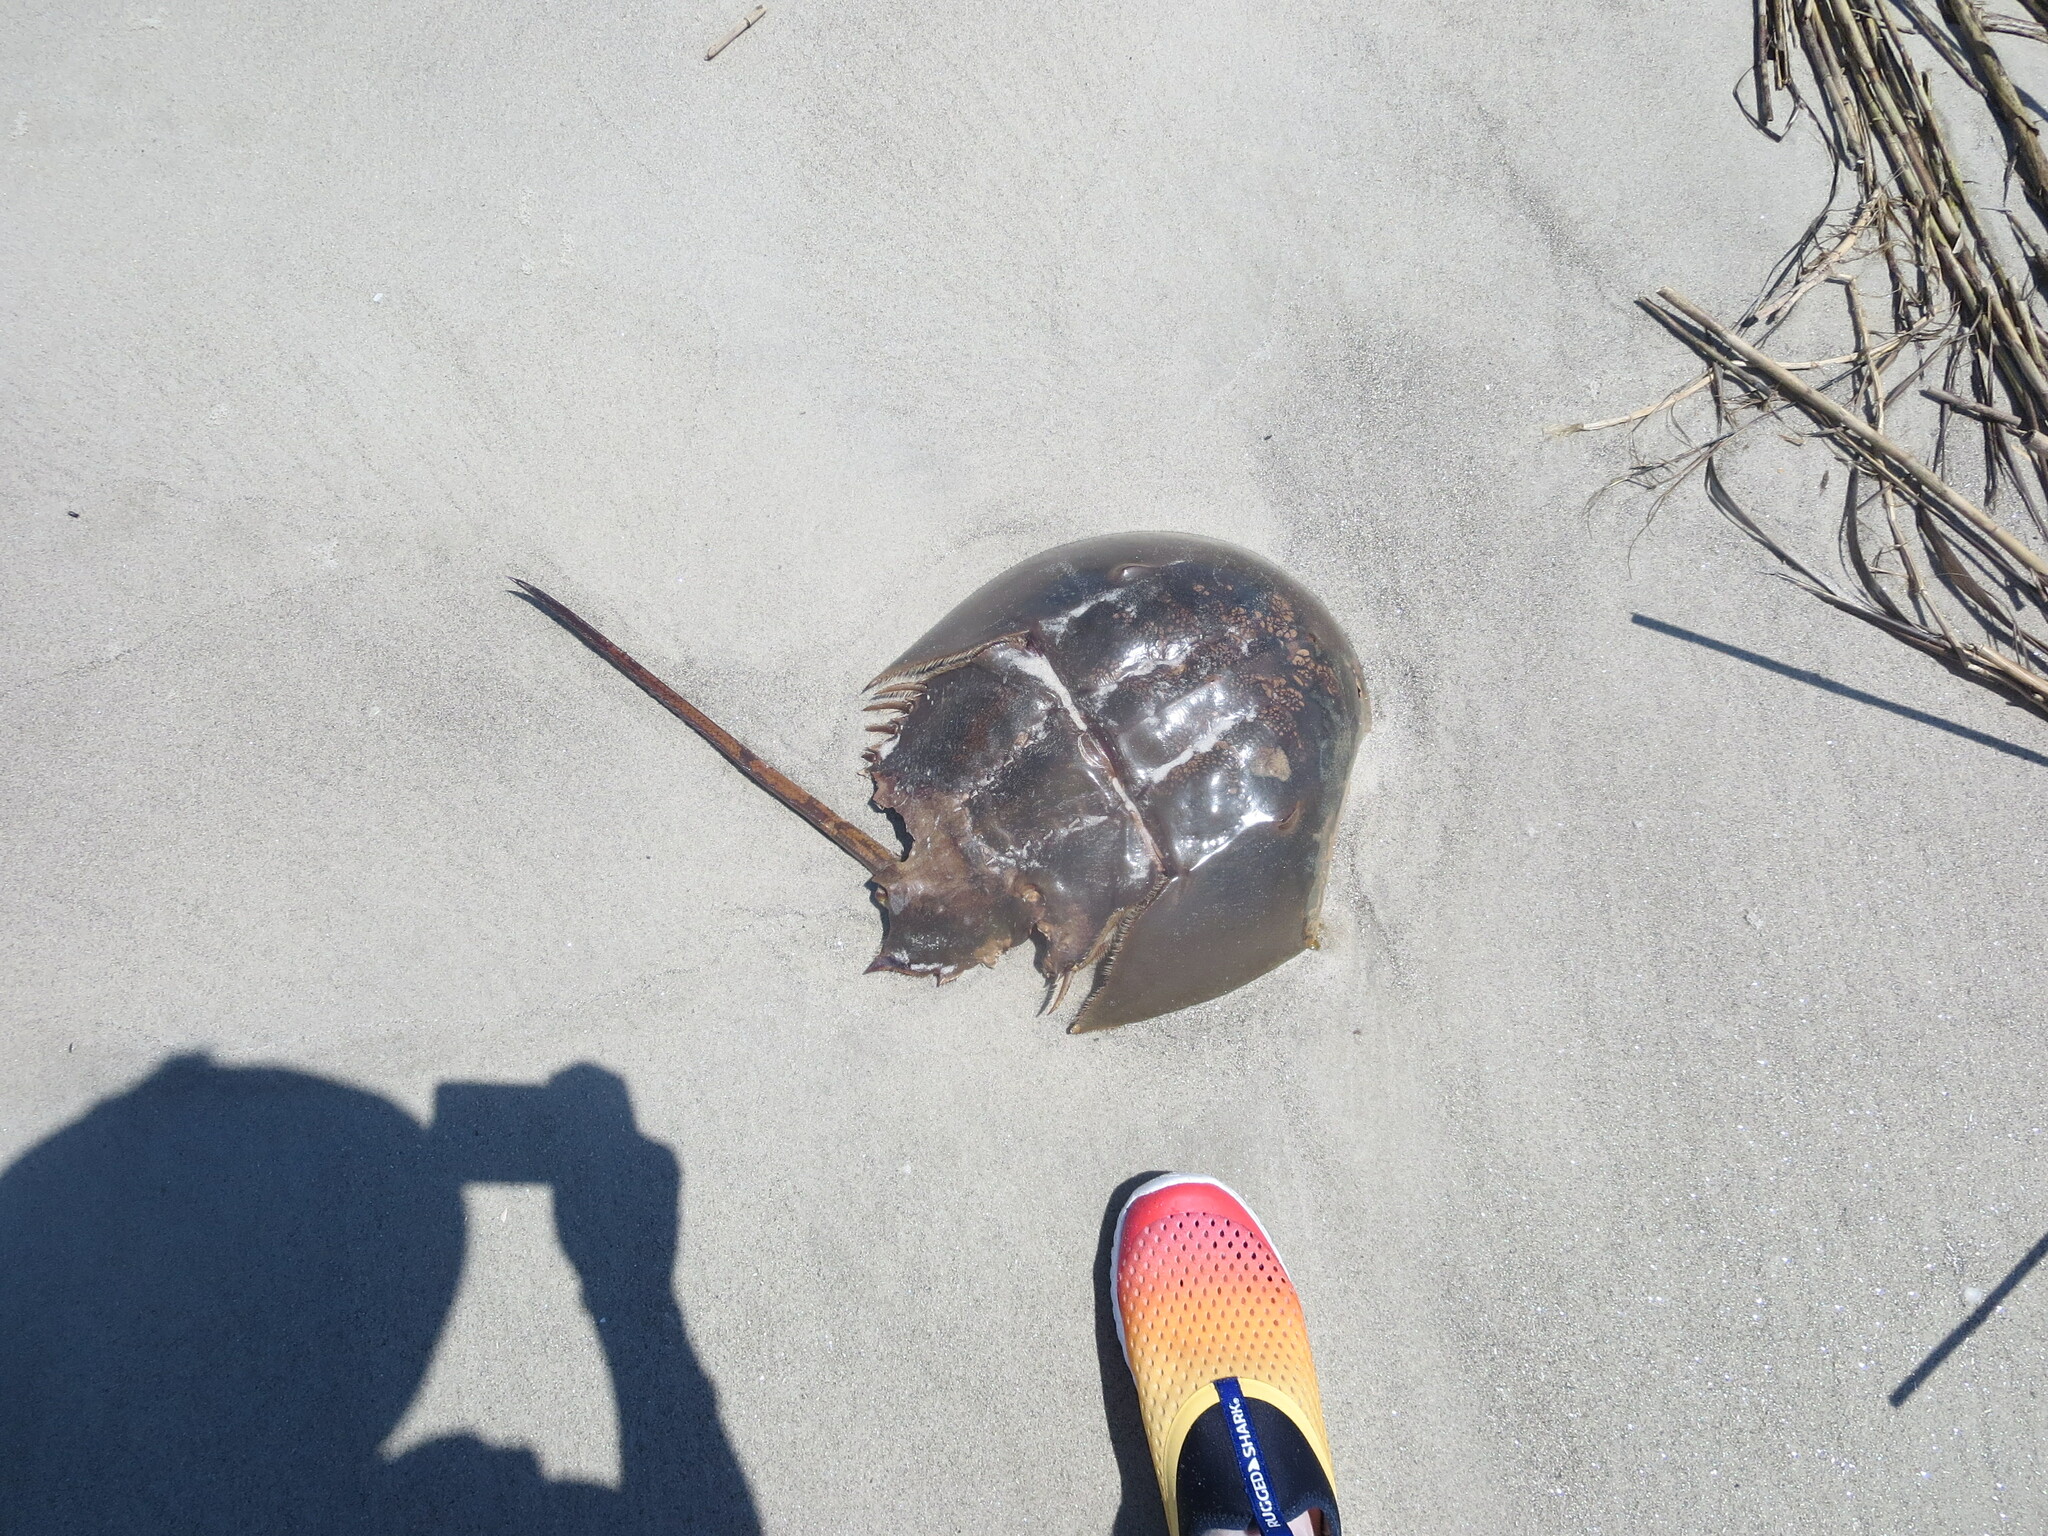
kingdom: Animalia
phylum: Arthropoda
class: Merostomata
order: Xiphosurida
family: Limulidae
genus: Limulus
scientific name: Limulus polyphemus
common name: Horseshoe crab
